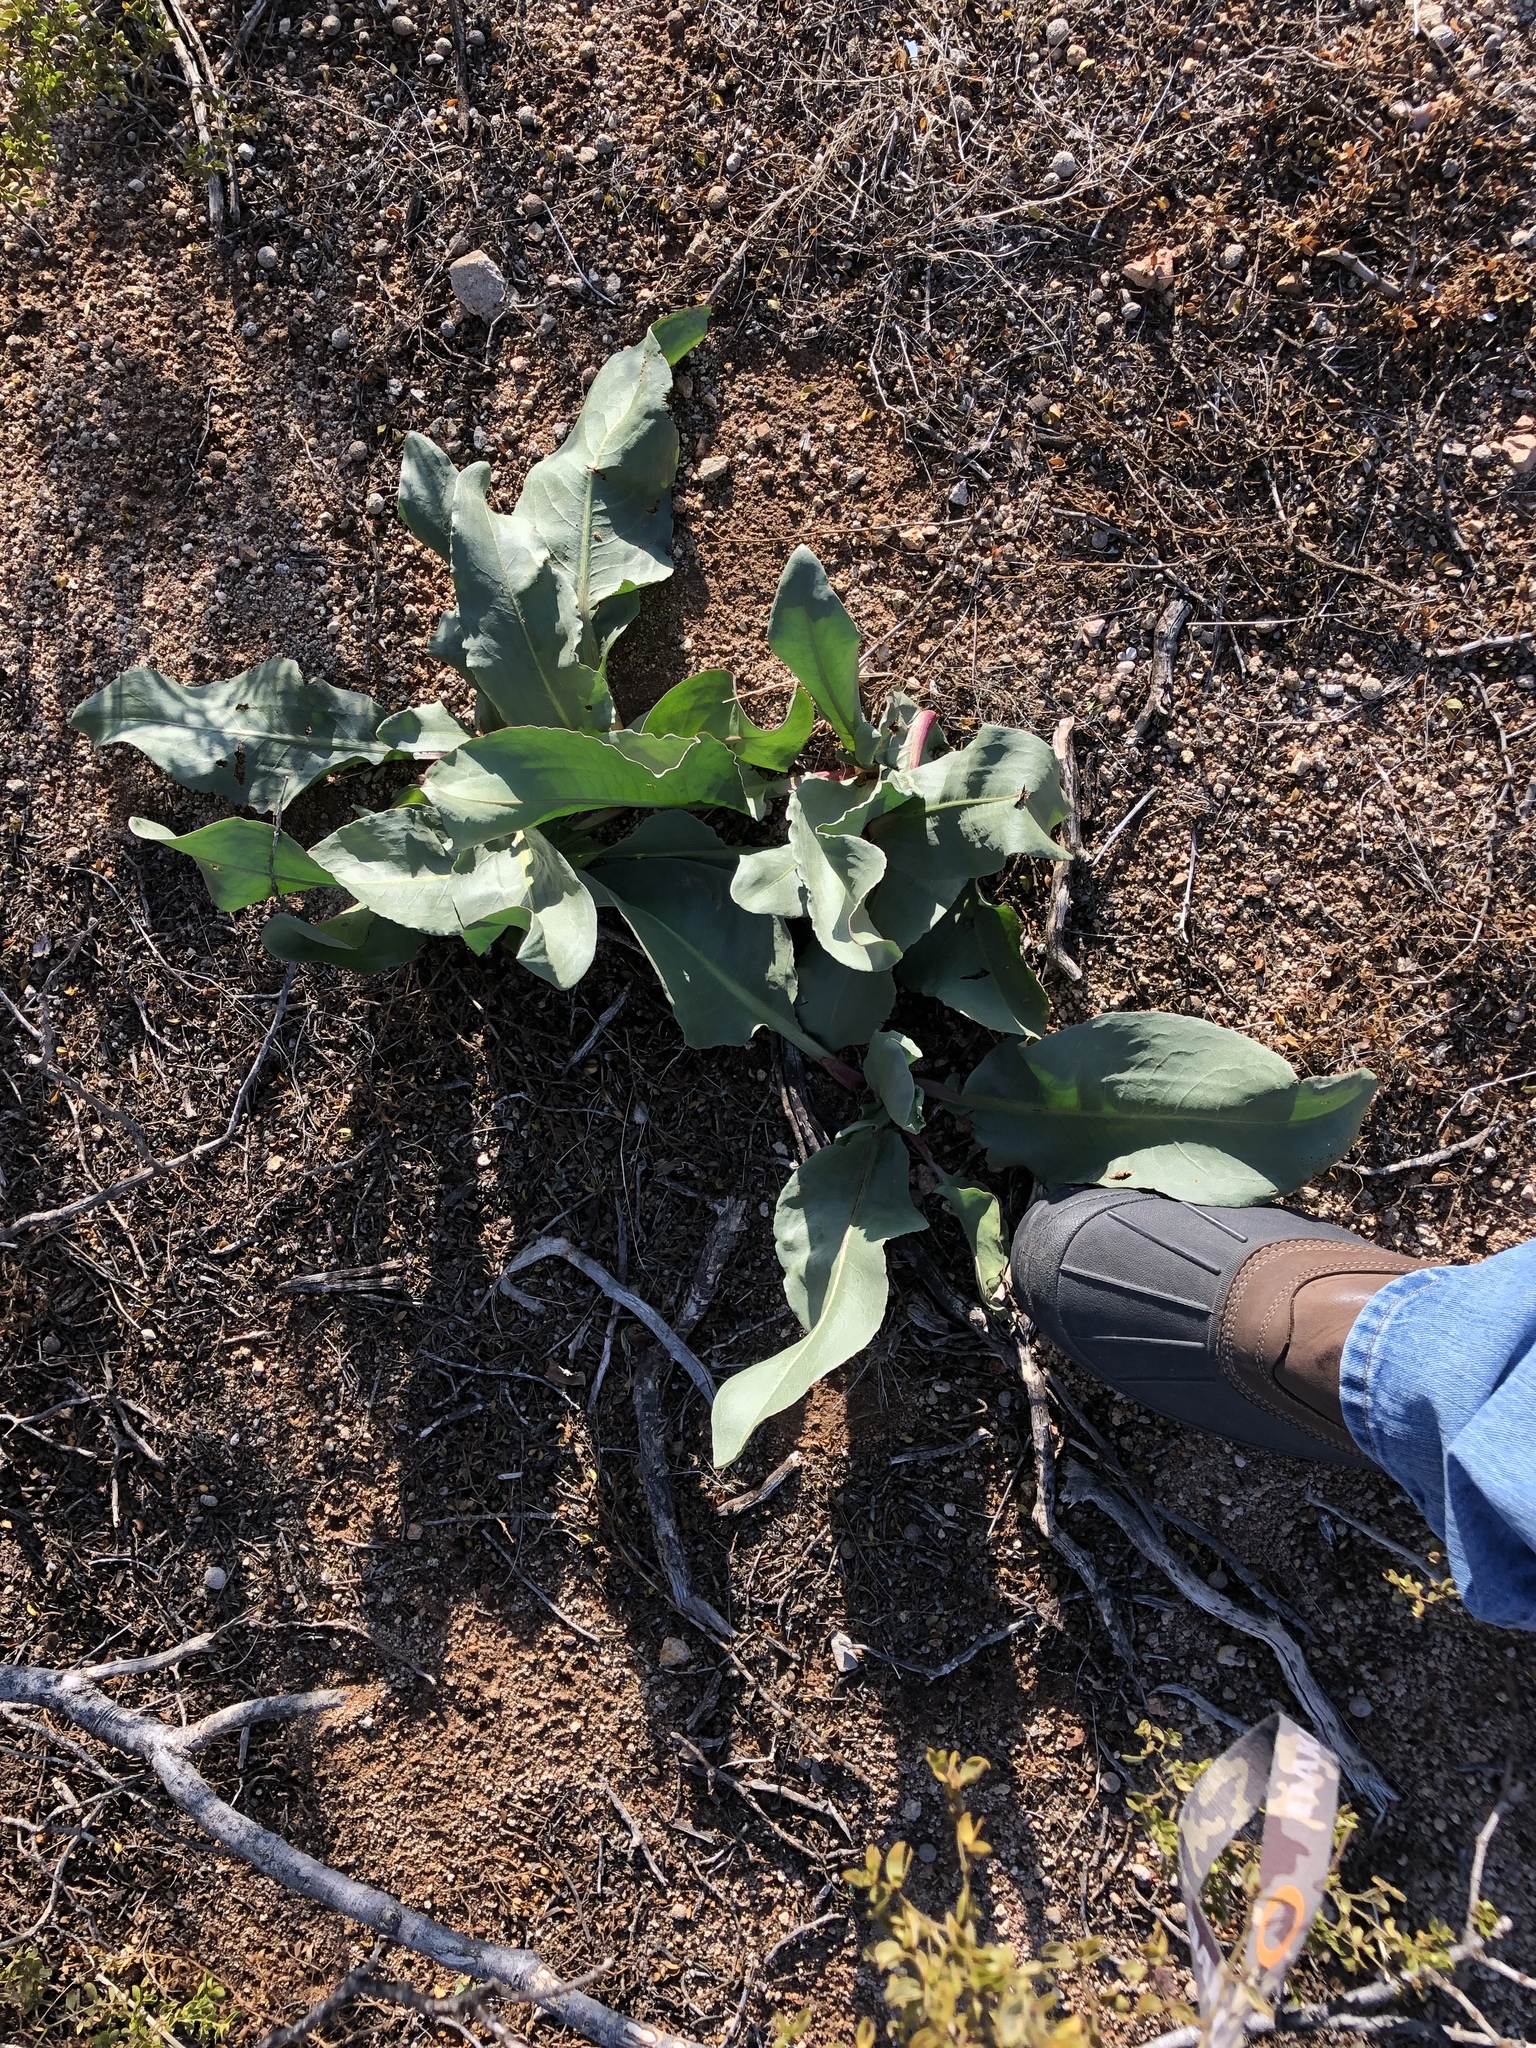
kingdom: Plantae
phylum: Tracheophyta
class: Magnoliopsida
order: Caryophyllales
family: Polygonaceae
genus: Rumex
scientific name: Rumex hymenosepalus
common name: Ganagra
